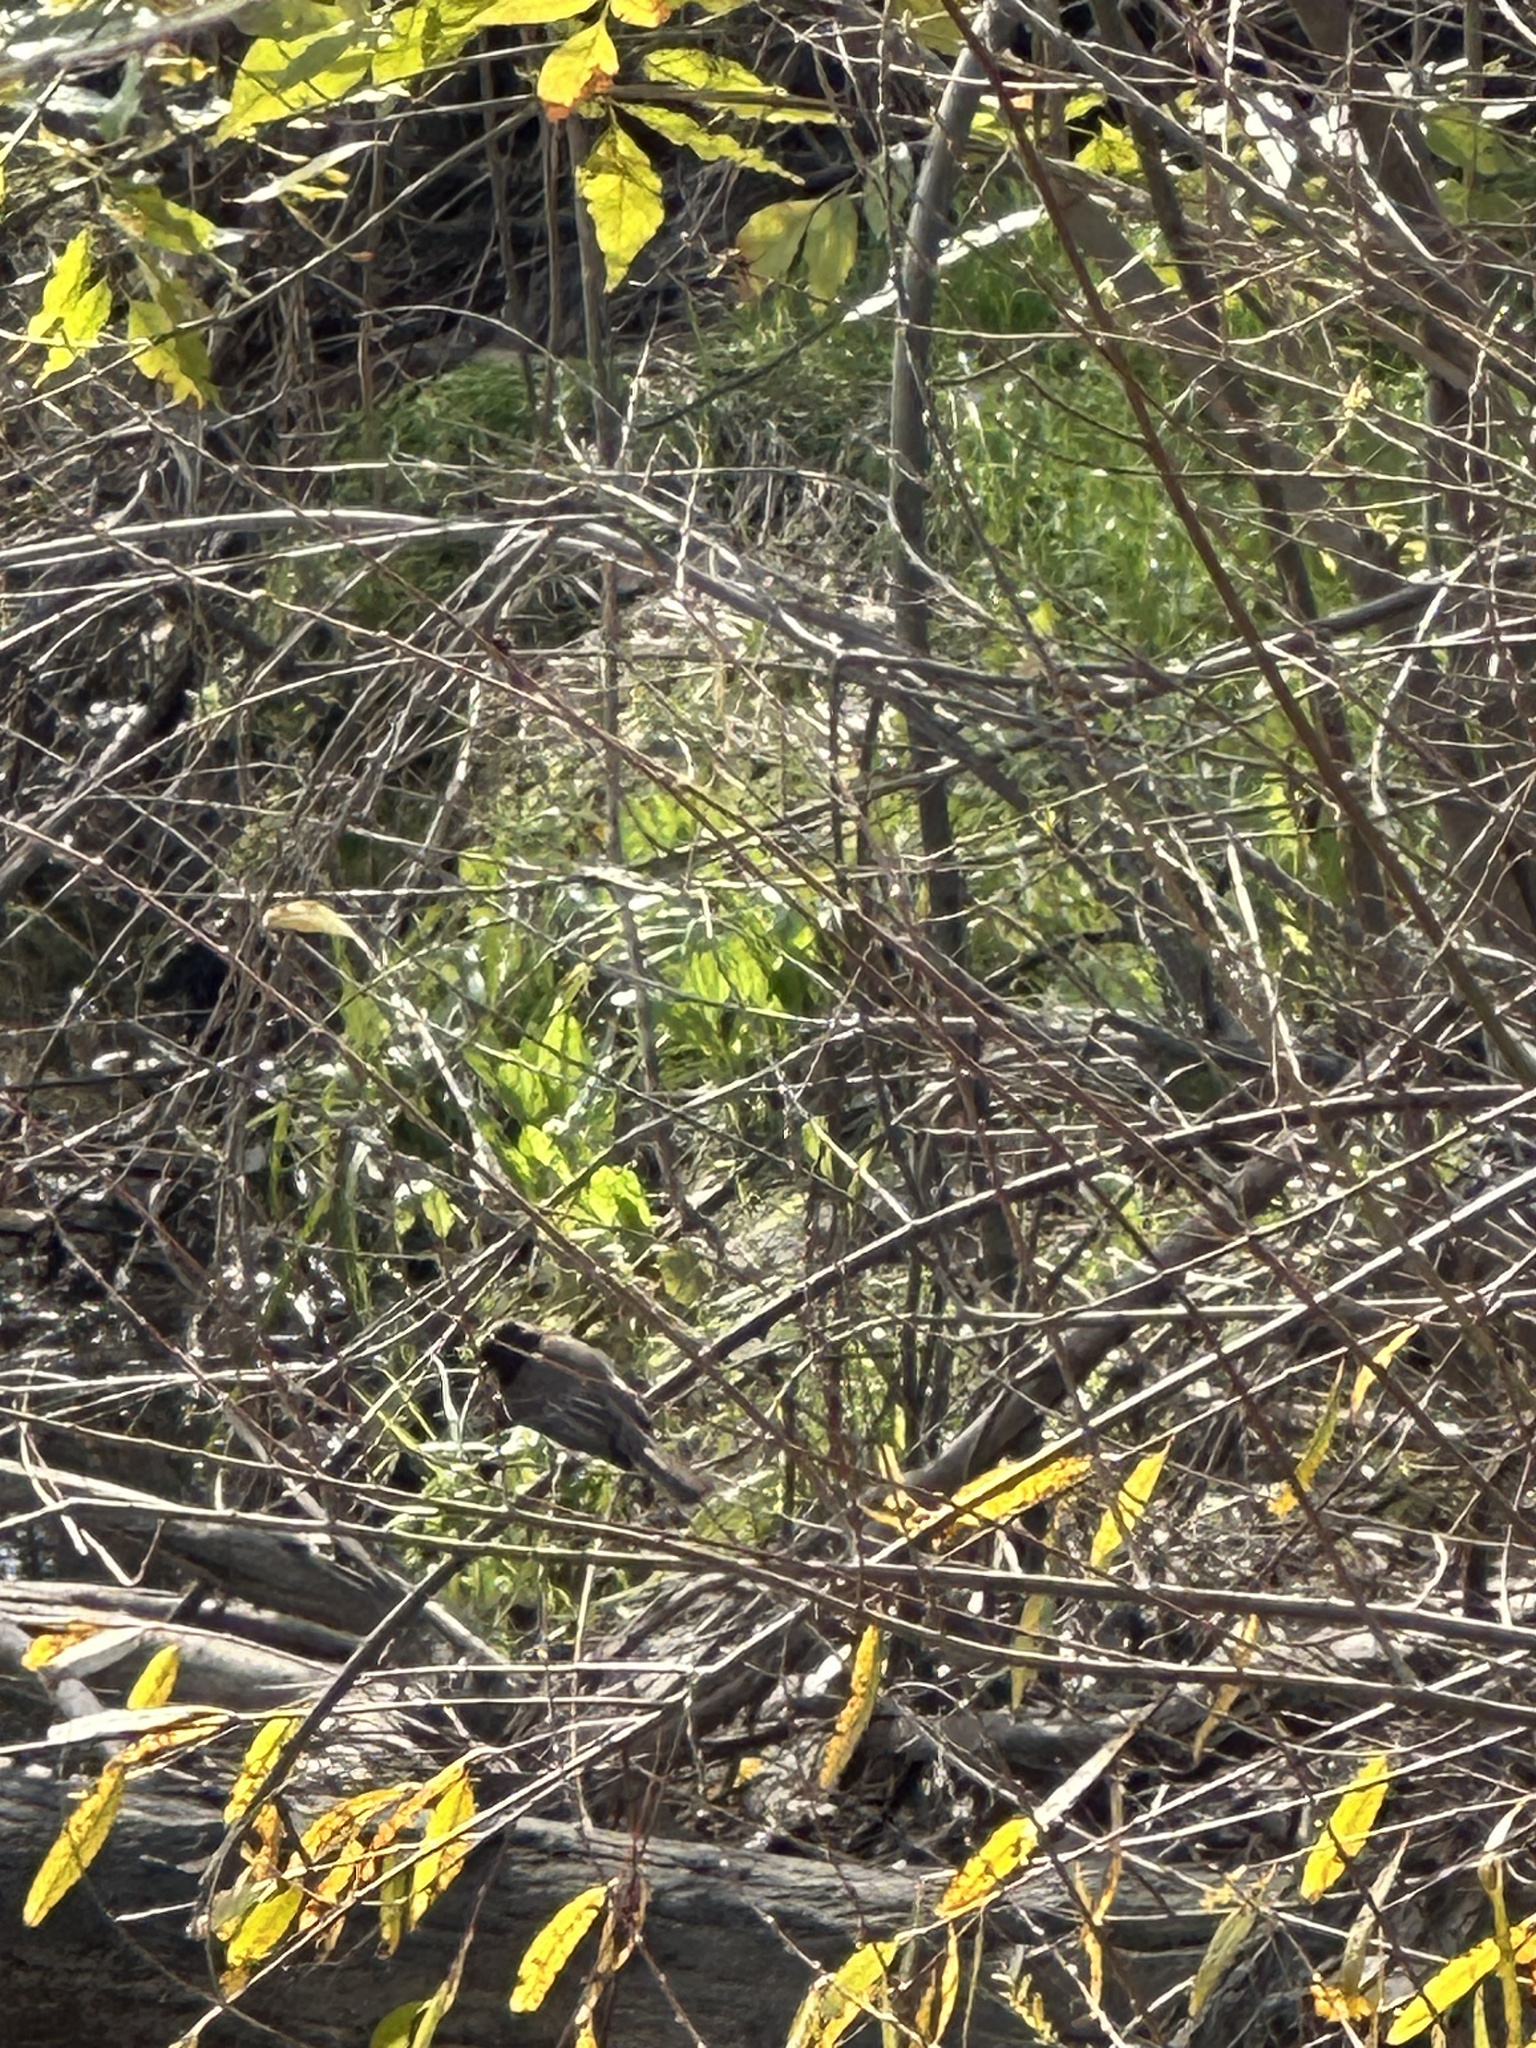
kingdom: Animalia
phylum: Chordata
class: Aves
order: Passeriformes
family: Tyrannidae
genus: Sayornis
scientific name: Sayornis nigricans
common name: Black phoebe
